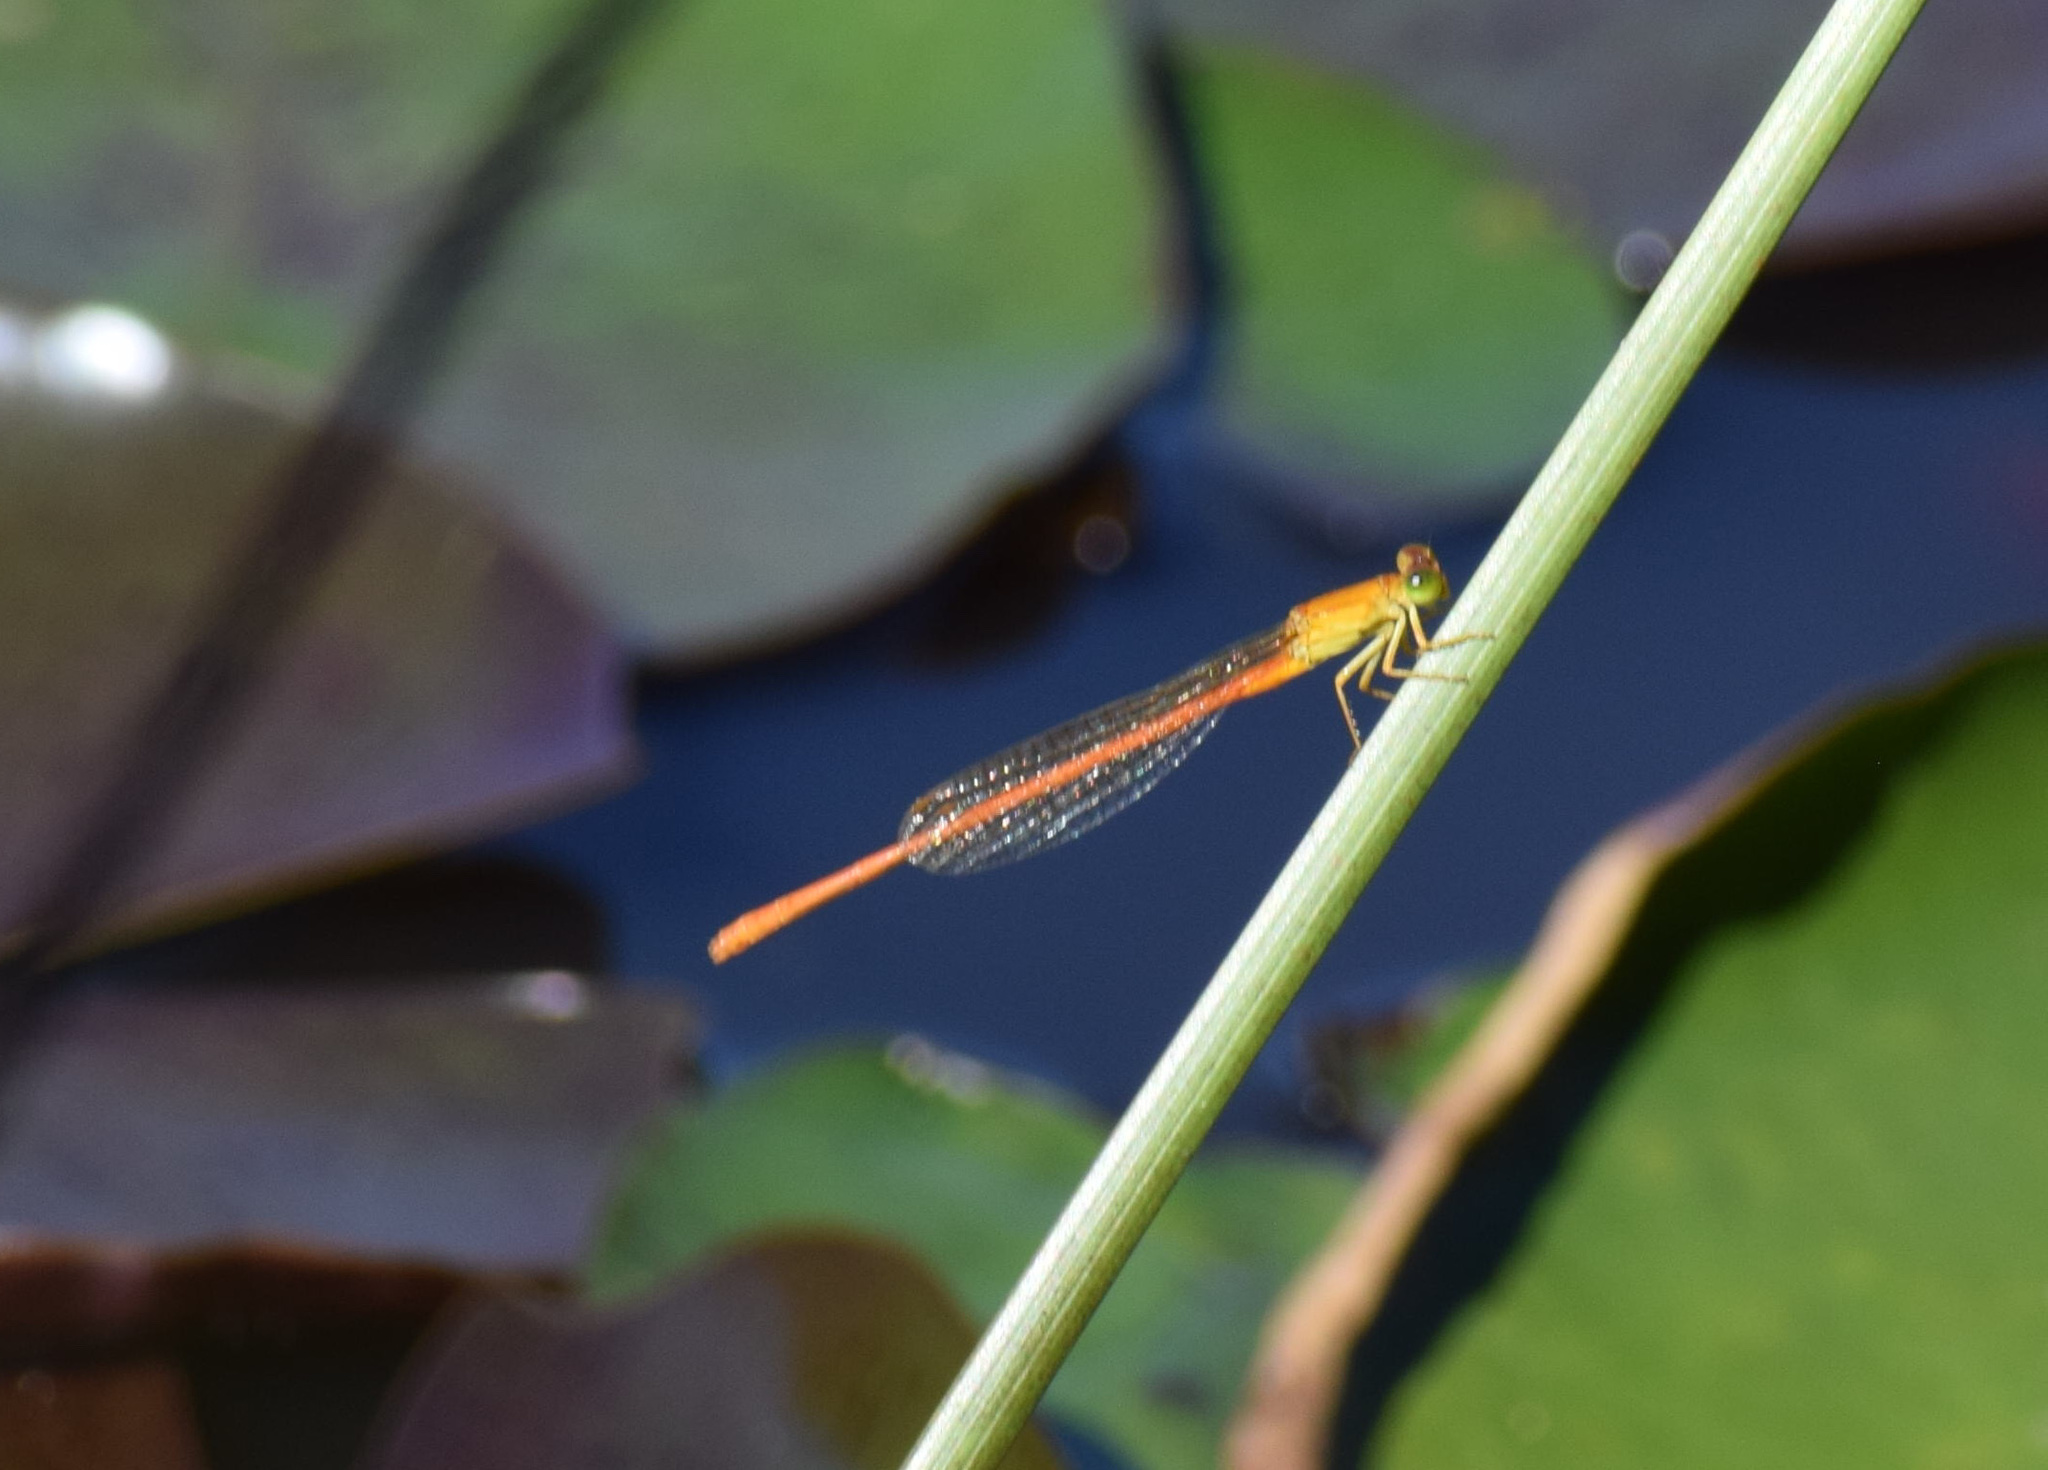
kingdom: Animalia
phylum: Arthropoda
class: Insecta
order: Odonata
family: Coenagrionidae
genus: Ceriagrion
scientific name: Ceriagrion glabrum
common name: Common pond damsel
